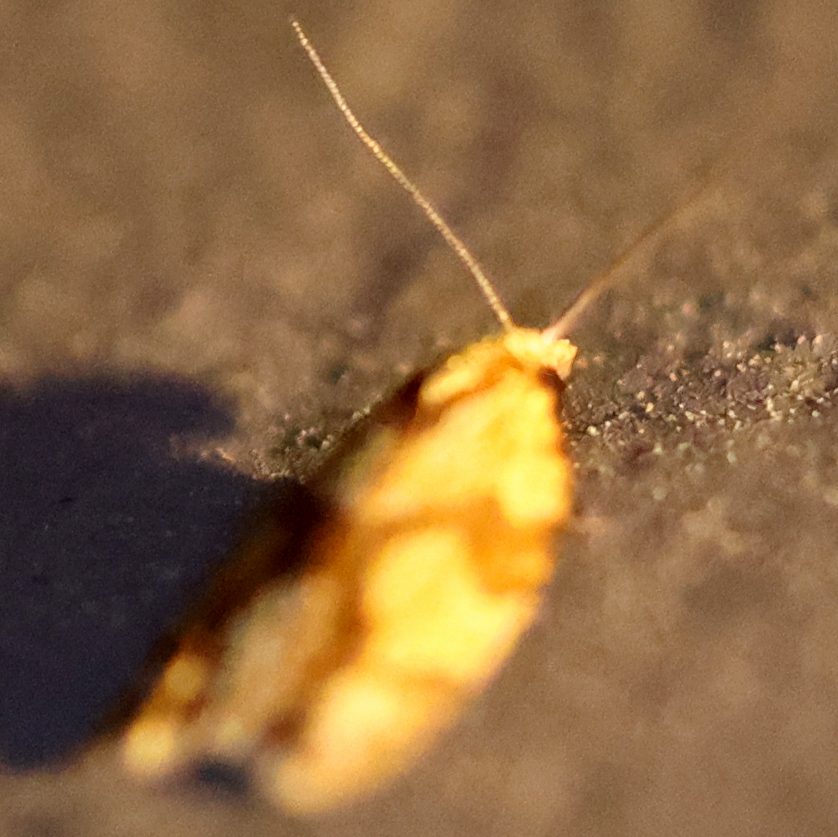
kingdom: Animalia
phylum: Arthropoda
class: Insecta
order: Lepidoptera
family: Tortricidae
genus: Sparganothis
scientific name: Sparganothis sulfureana
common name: Sparganothis fruitworm moth
